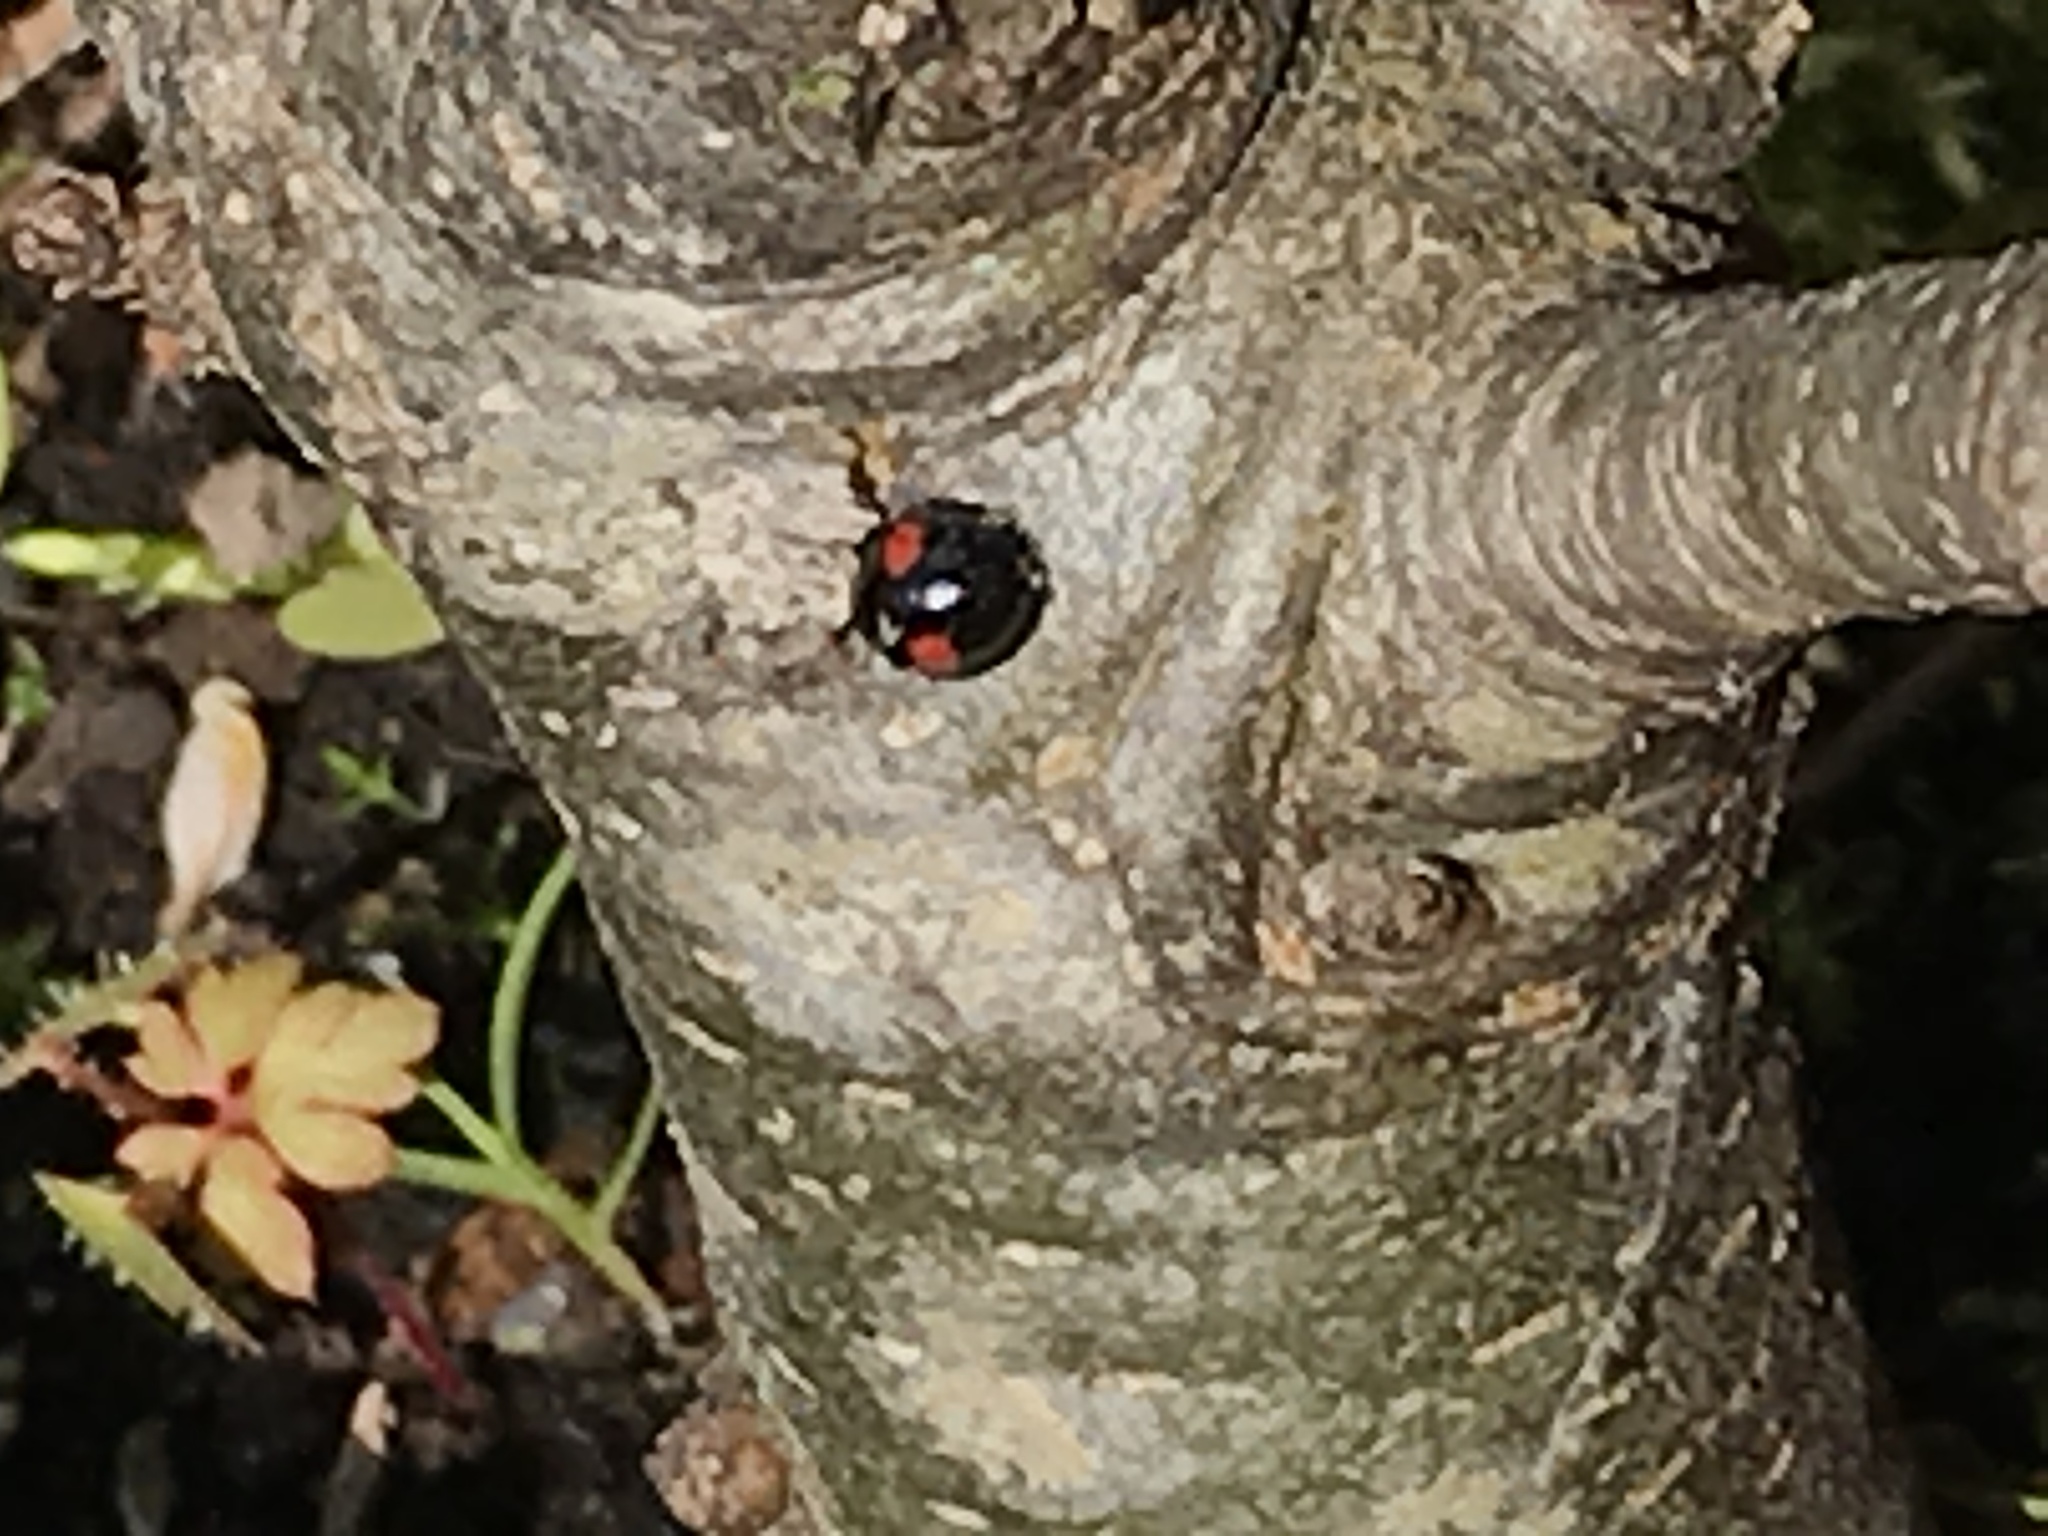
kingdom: Animalia
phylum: Arthropoda
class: Insecta
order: Coleoptera
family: Coccinellidae
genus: Chilocorus
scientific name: Chilocorus renipustulatus
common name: Kidney-spot ladybird
